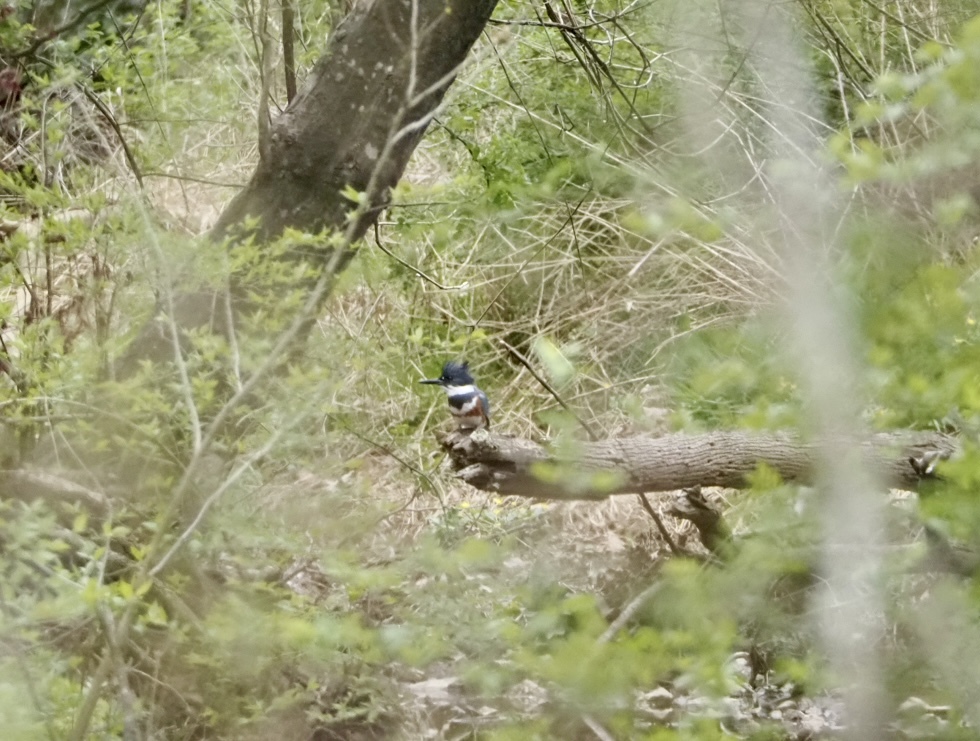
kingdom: Animalia
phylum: Chordata
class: Aves
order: Coraciiformes
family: Alcedinidae
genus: Megaceryle
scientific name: Megaceryle alcyon
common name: Belted kingfisher
